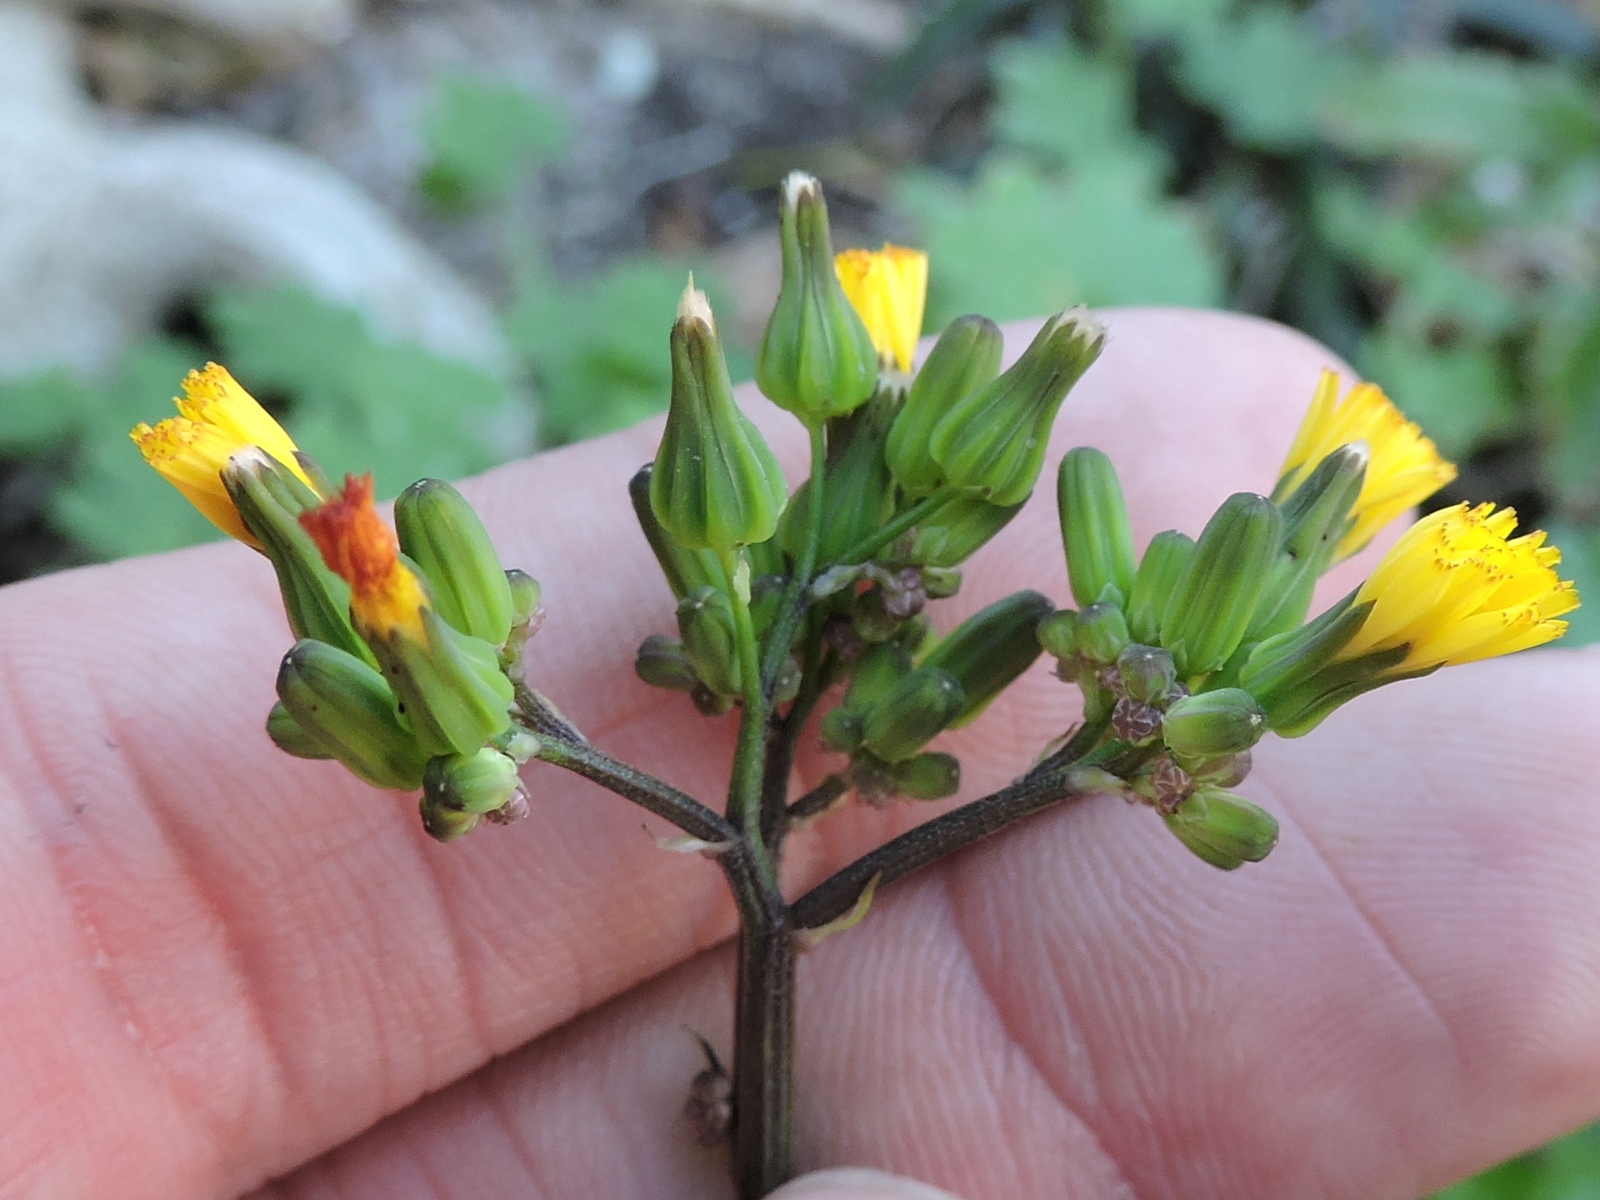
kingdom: Plantae
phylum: Tracheophyta
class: Magnoliopsida
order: Asterales
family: Asteraceae
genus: Youngia
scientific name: Youngia japonica
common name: Oriental false hawksbeard
